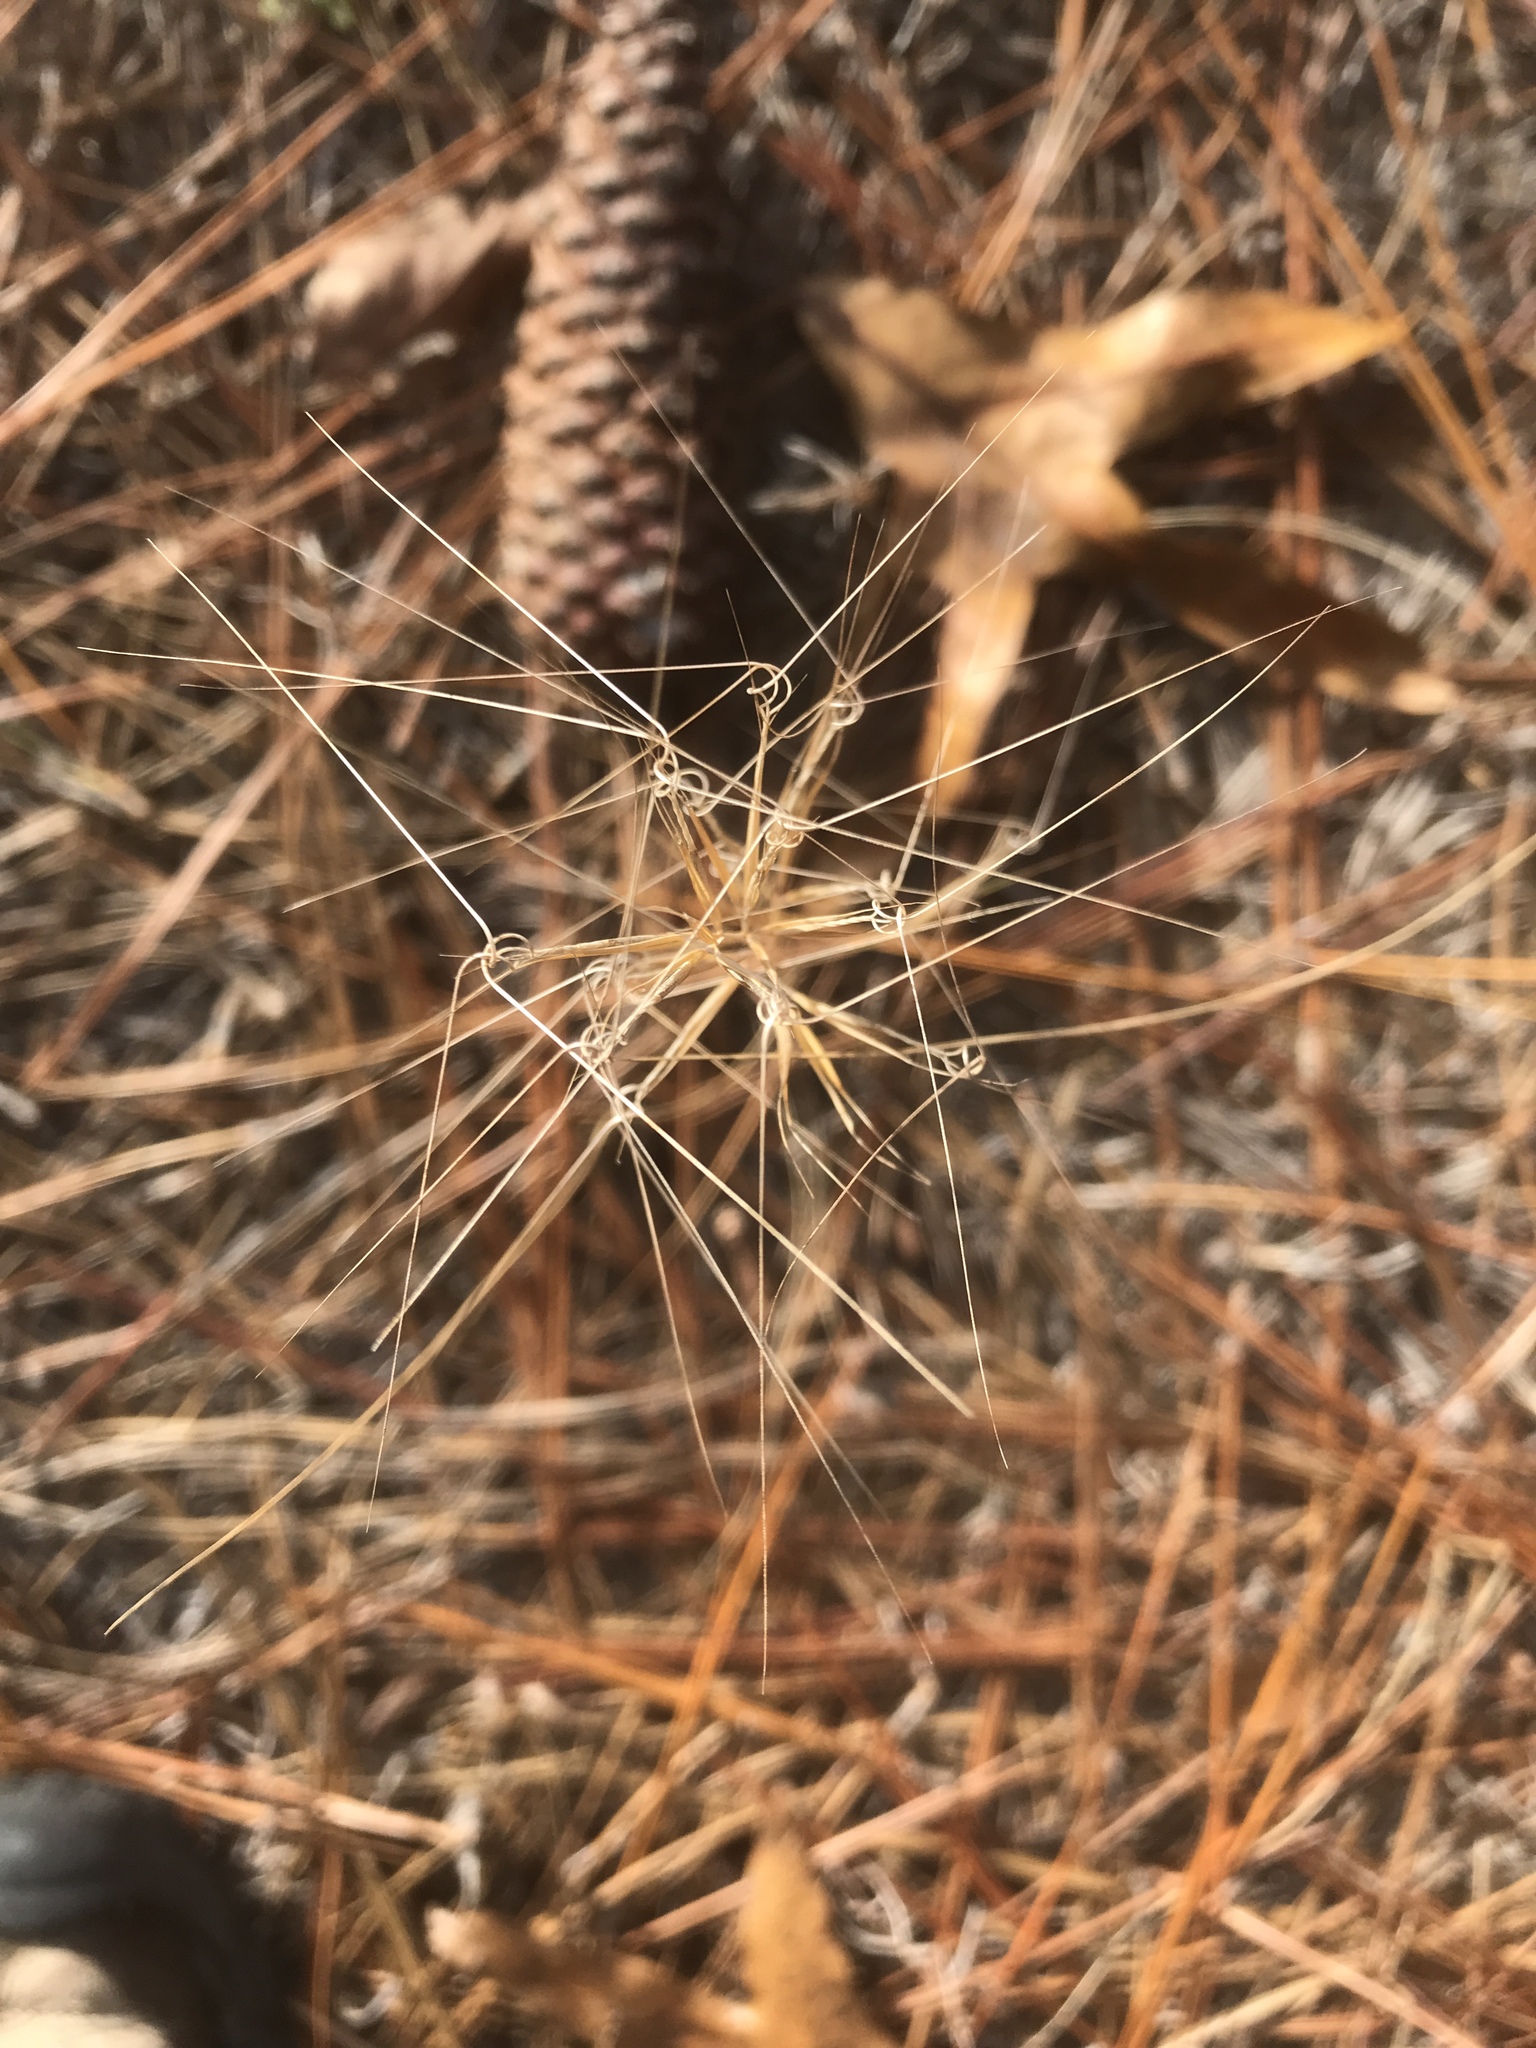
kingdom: Plantae
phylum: Tracheophyta
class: Liliopsida
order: Poales
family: Poaceae
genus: Aristida
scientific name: Aristida tuberculosa
